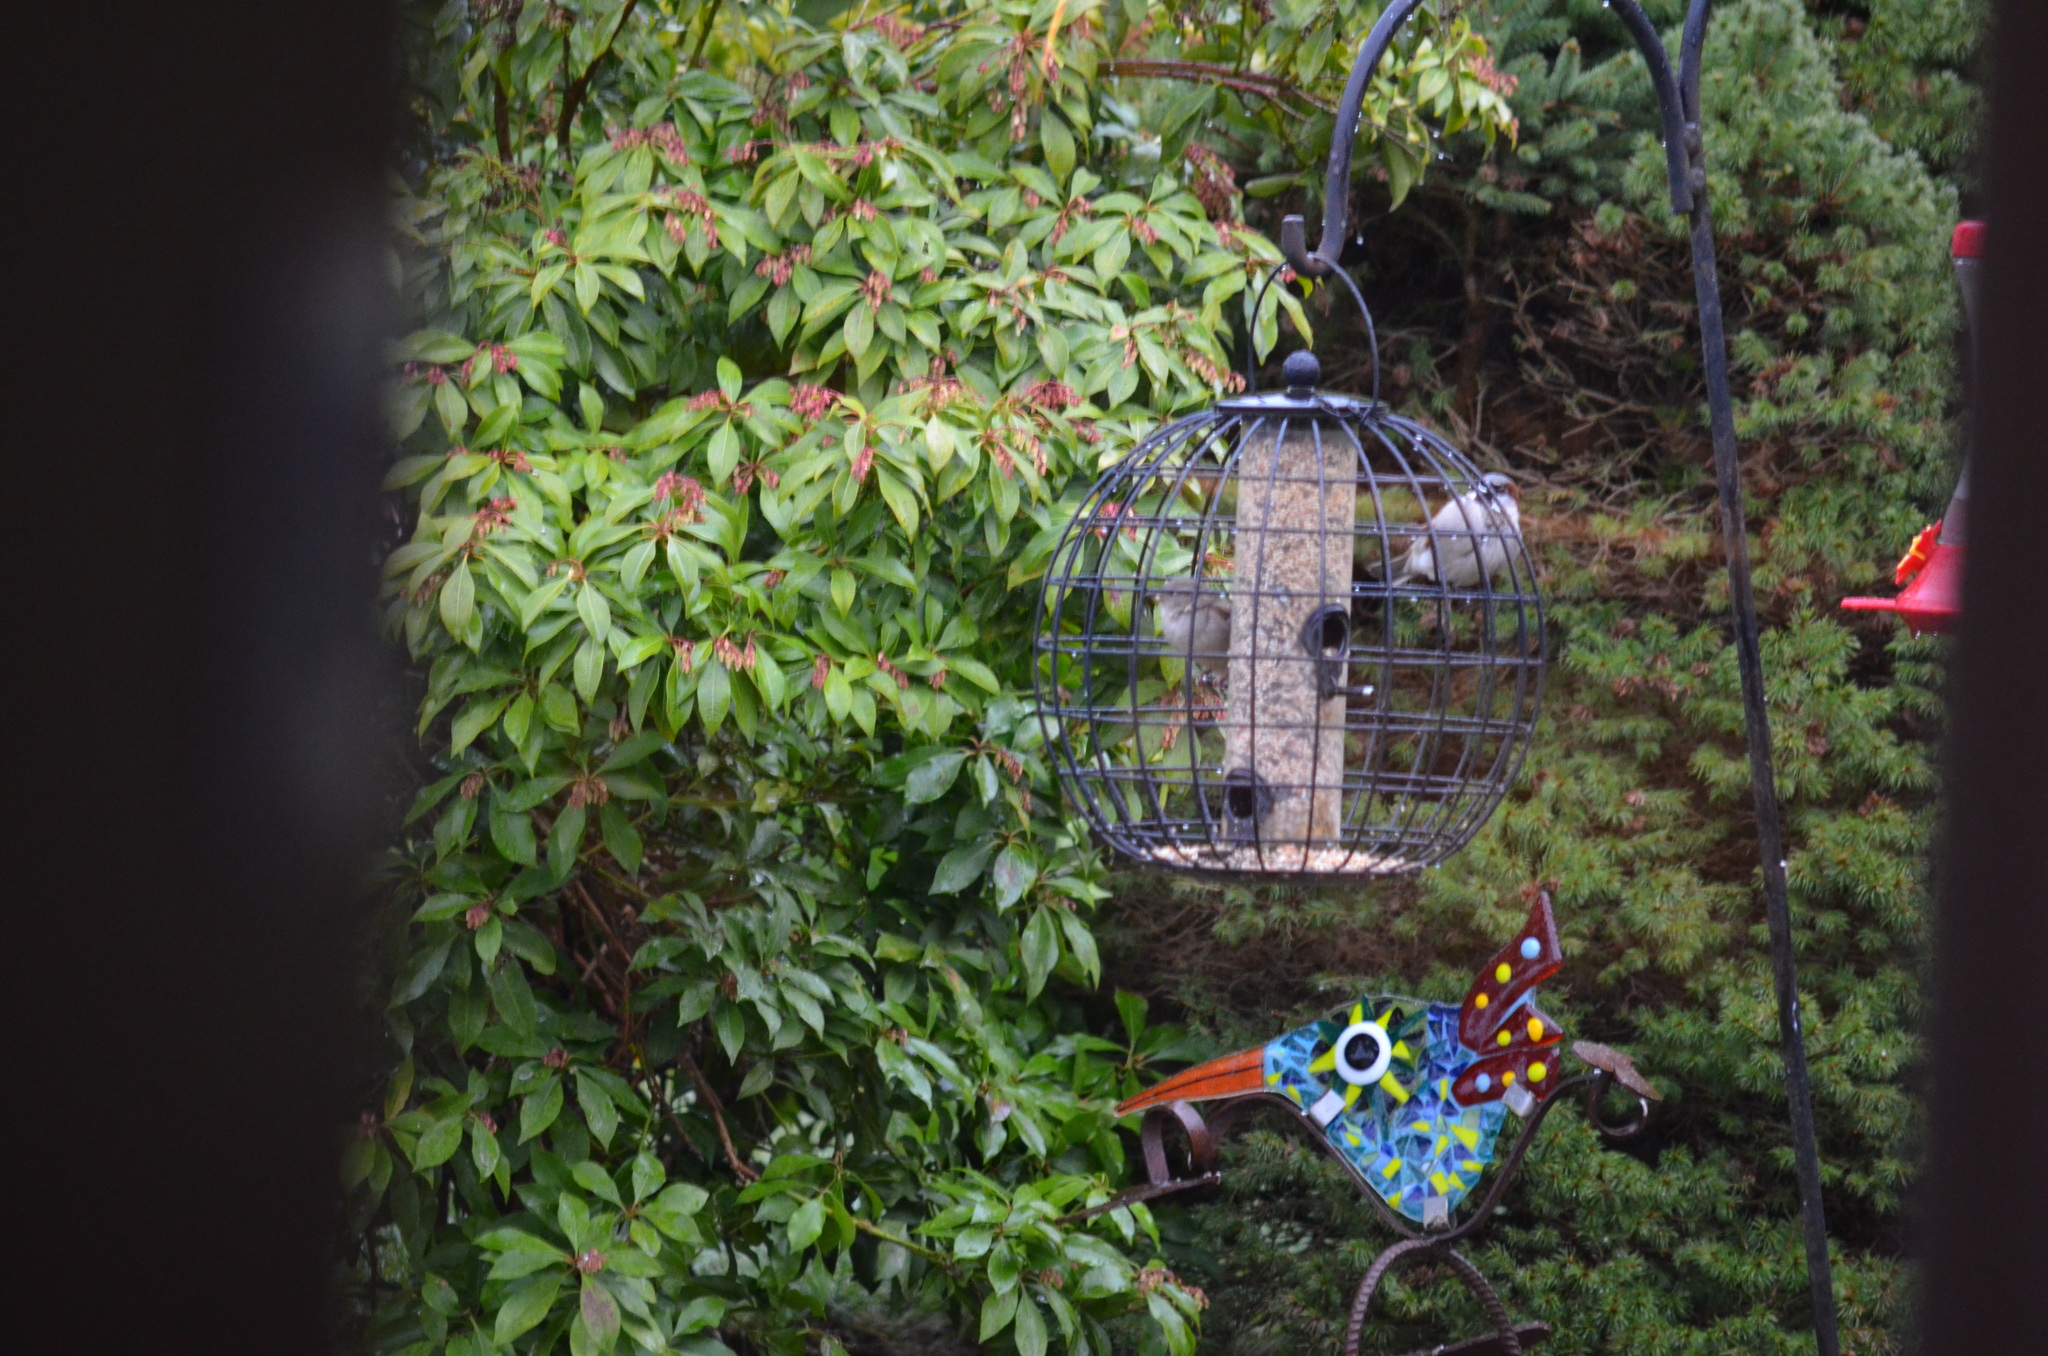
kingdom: Animalia
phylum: Chordata
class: Aves
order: Passeriformes
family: Passeridae
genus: Passer
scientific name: Passer domesticus
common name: House sparrow
